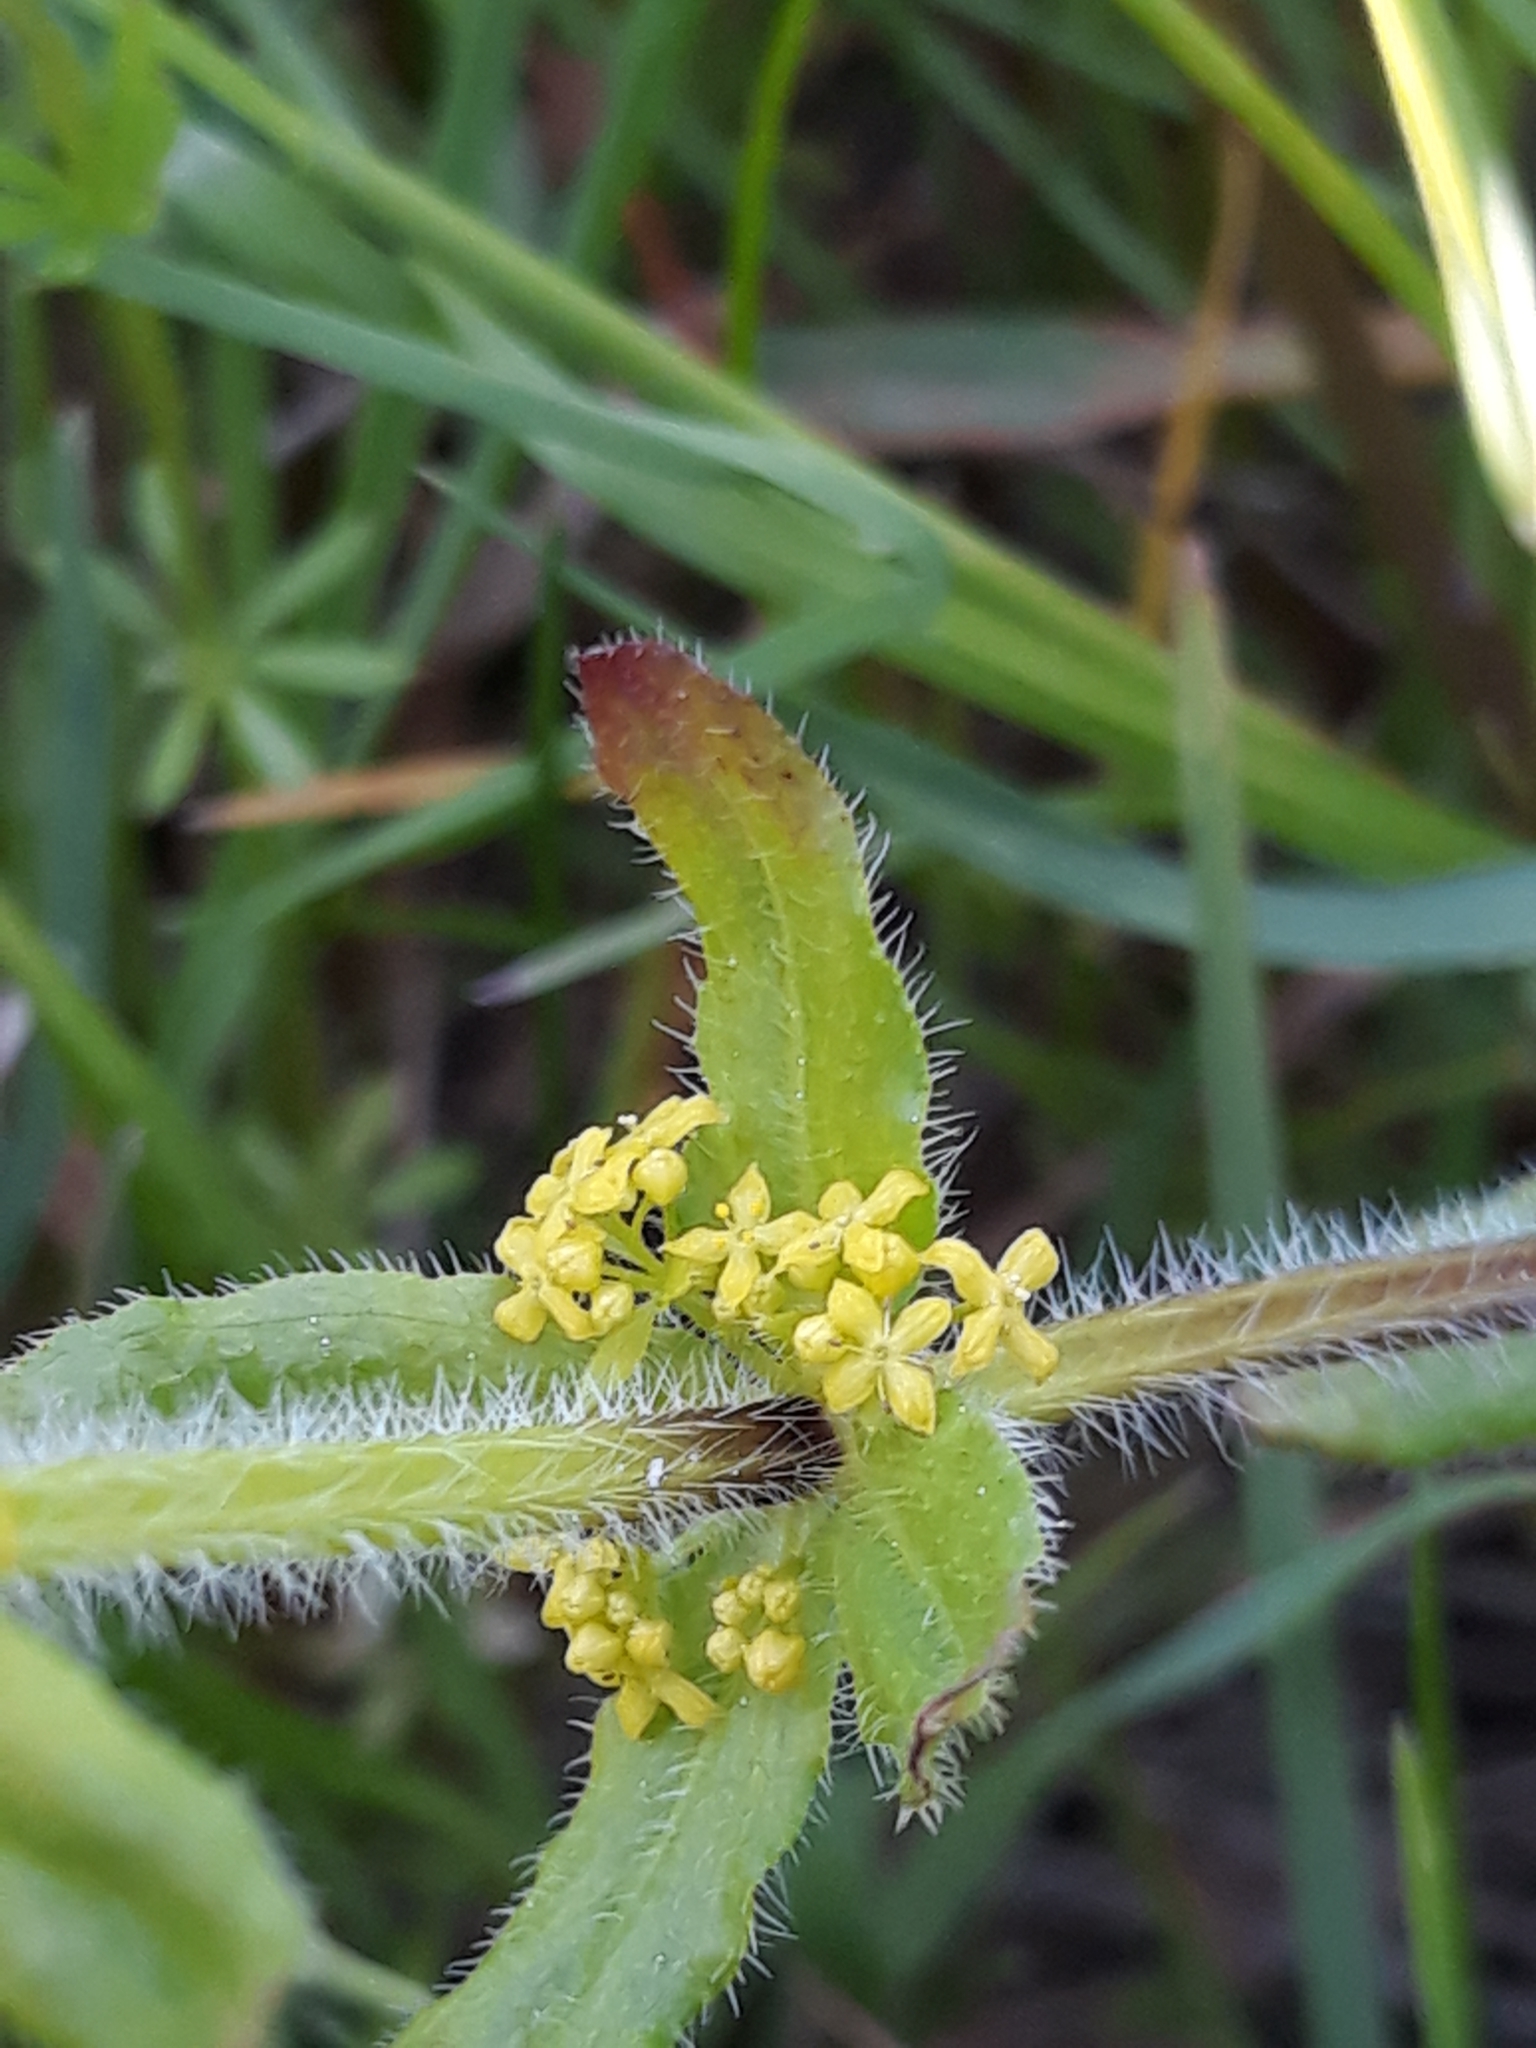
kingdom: Plantae
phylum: Tracheophyta
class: Magnoliopsida
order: Gentianales
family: Rubiaceae
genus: Cruciata
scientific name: Cruciata laevipes
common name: Crosswort
